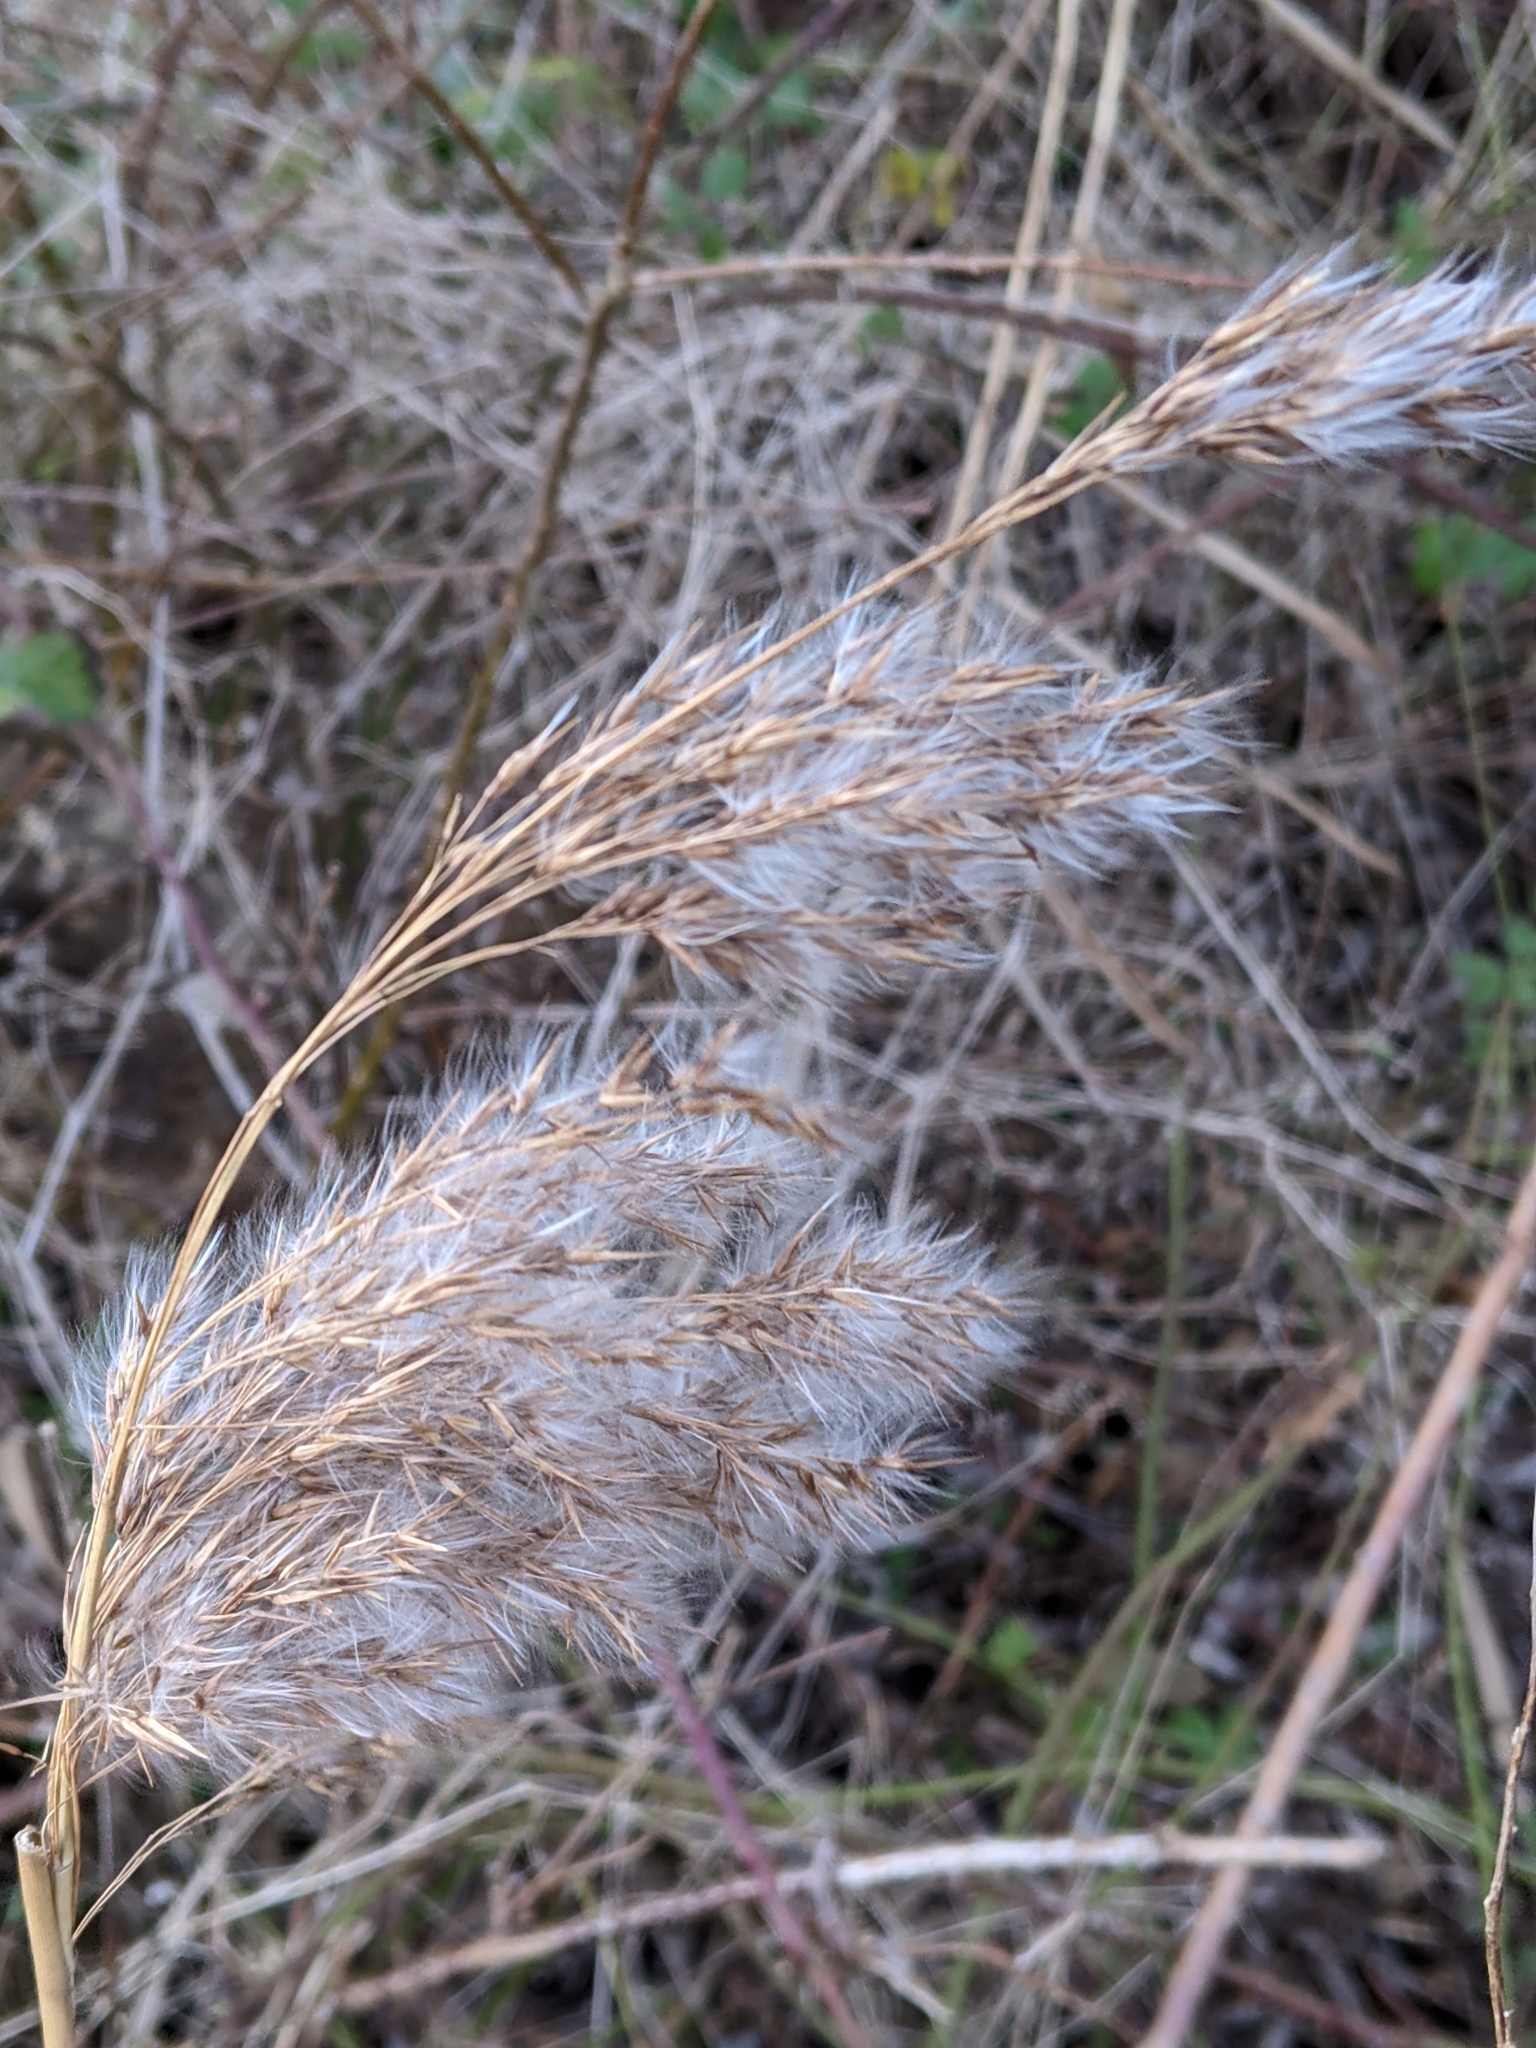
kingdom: Plantae
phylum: Tracheophyta
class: Liliopsida
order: Poales
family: Poaceae
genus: Phragmites
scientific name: Phragmites australis
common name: Common reed
